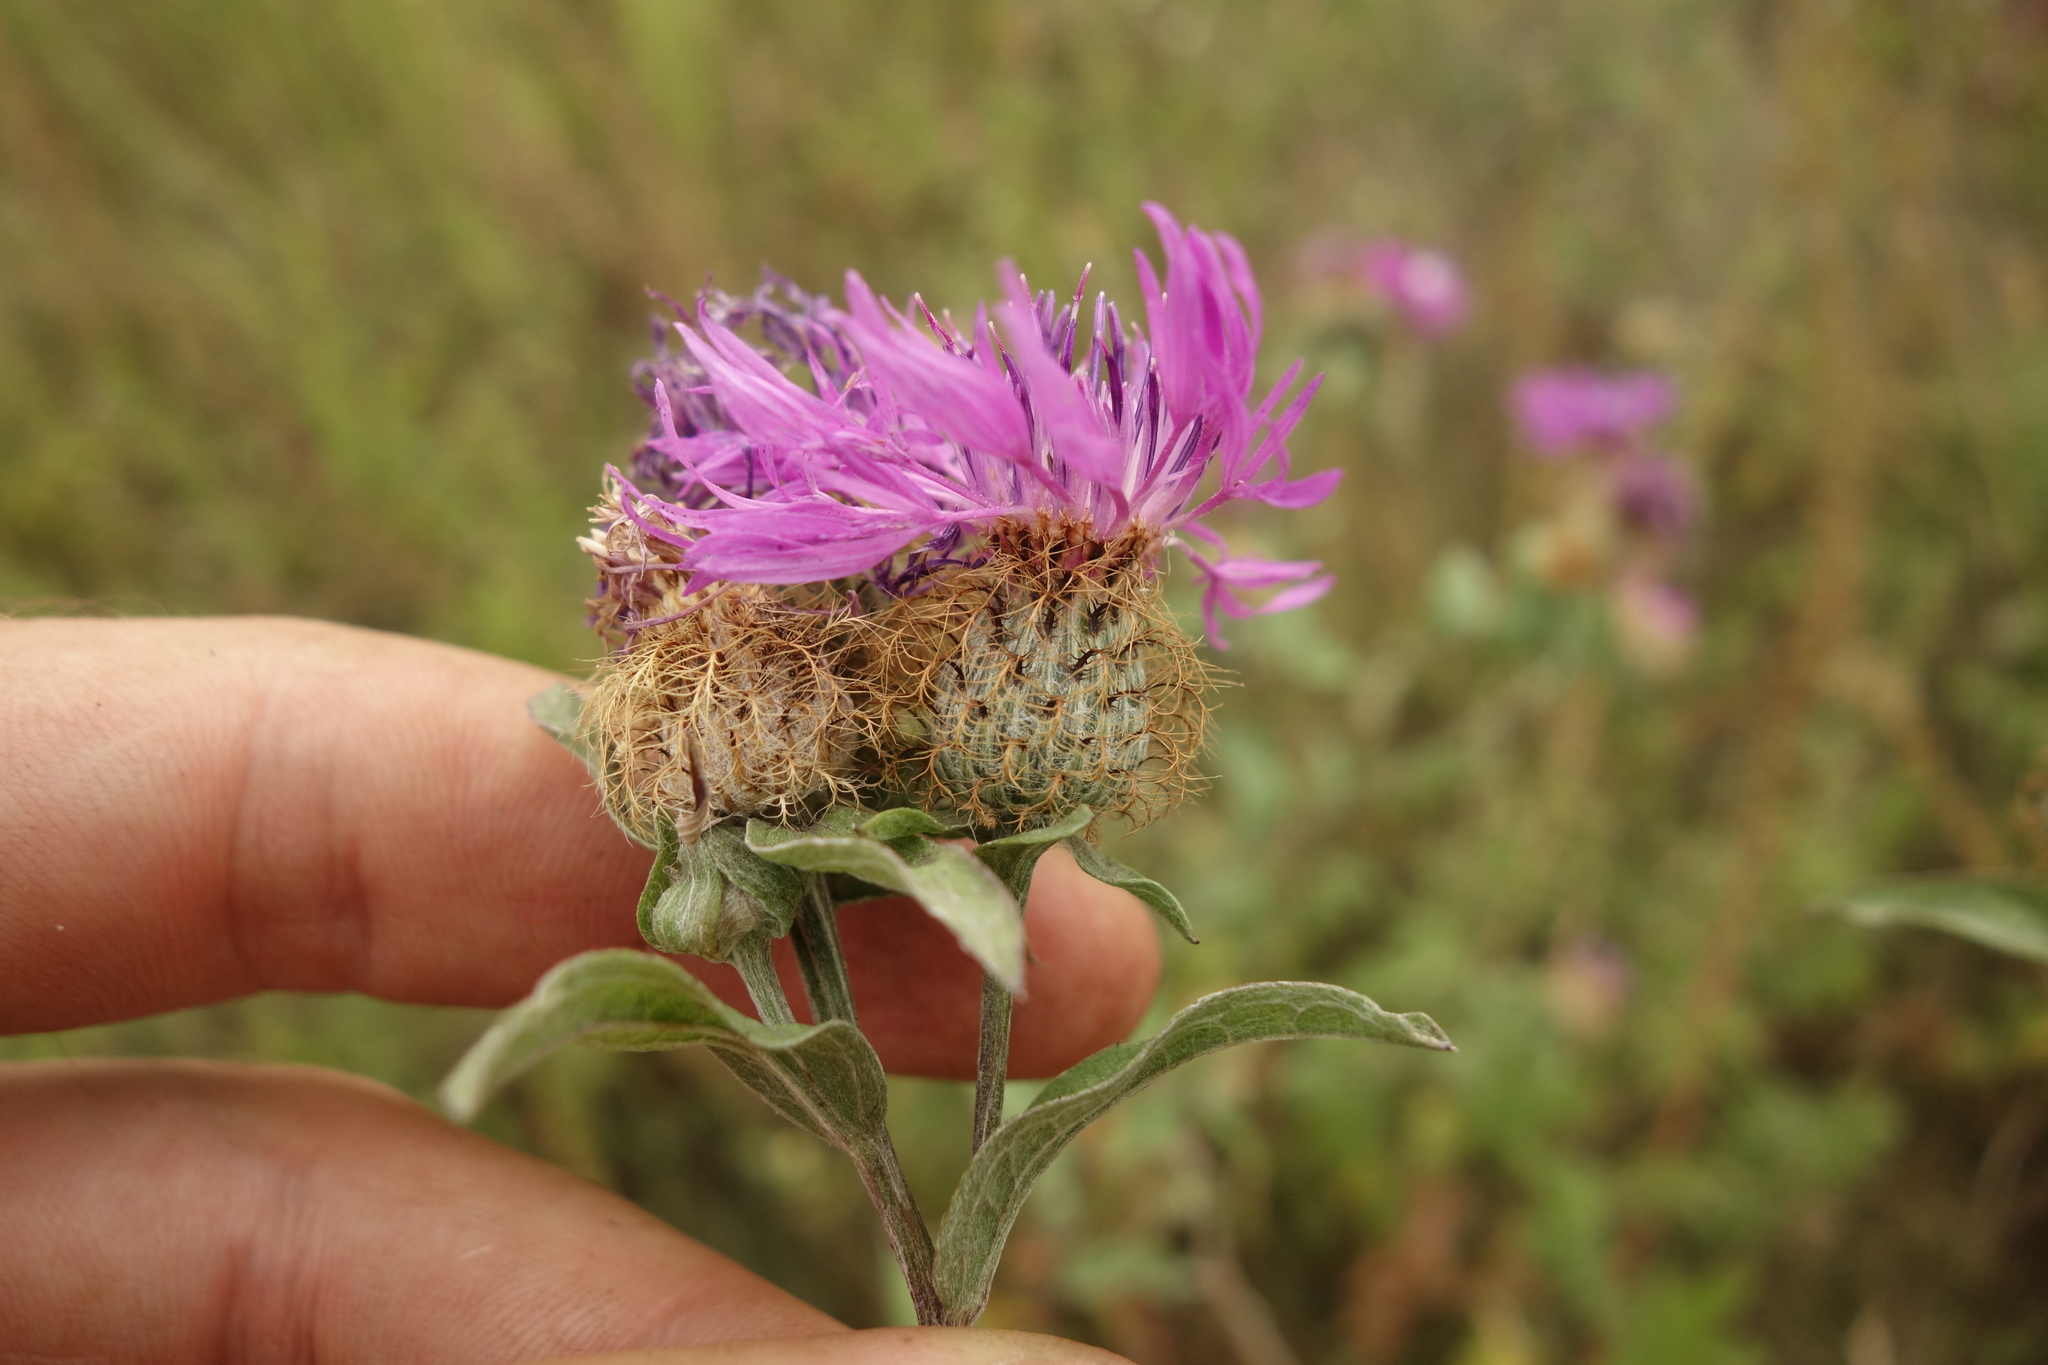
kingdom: Plantae
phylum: Tracheophyta
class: Magnoliopsida
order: Asterales
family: Asteraceae
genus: Centaurea
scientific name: Centaurea pseudophrygia
